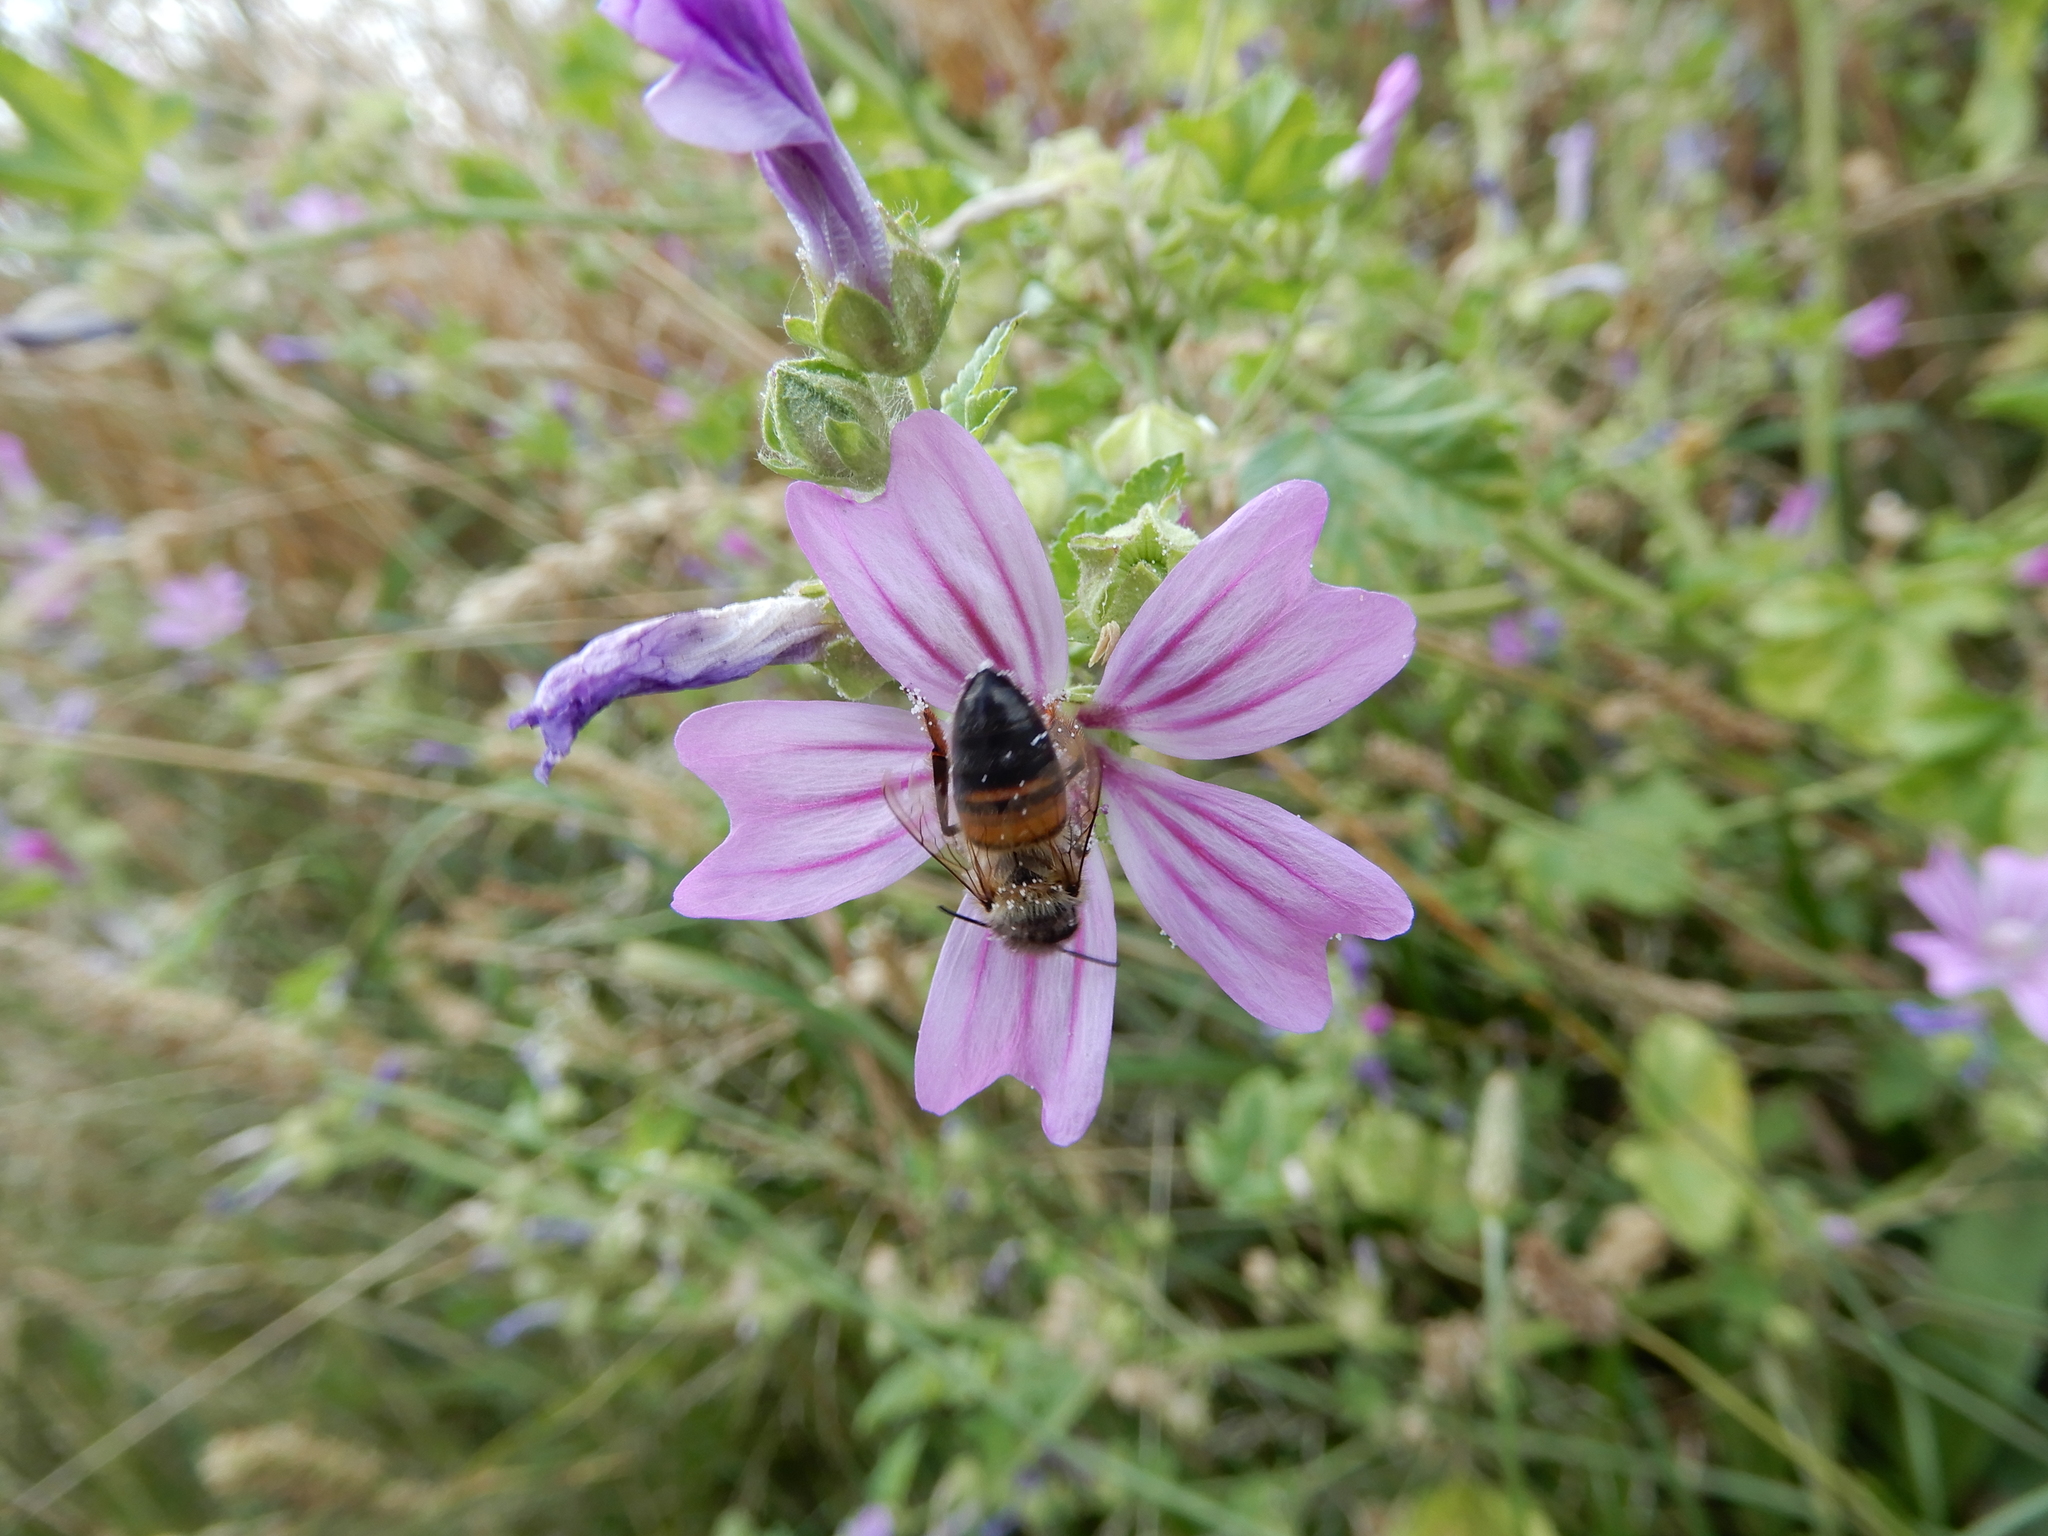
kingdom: Animalia
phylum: Arthropoda
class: Insecta
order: Hymenoptera
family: Apidae
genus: Apis
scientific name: Apis mellifera
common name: Honey bee
